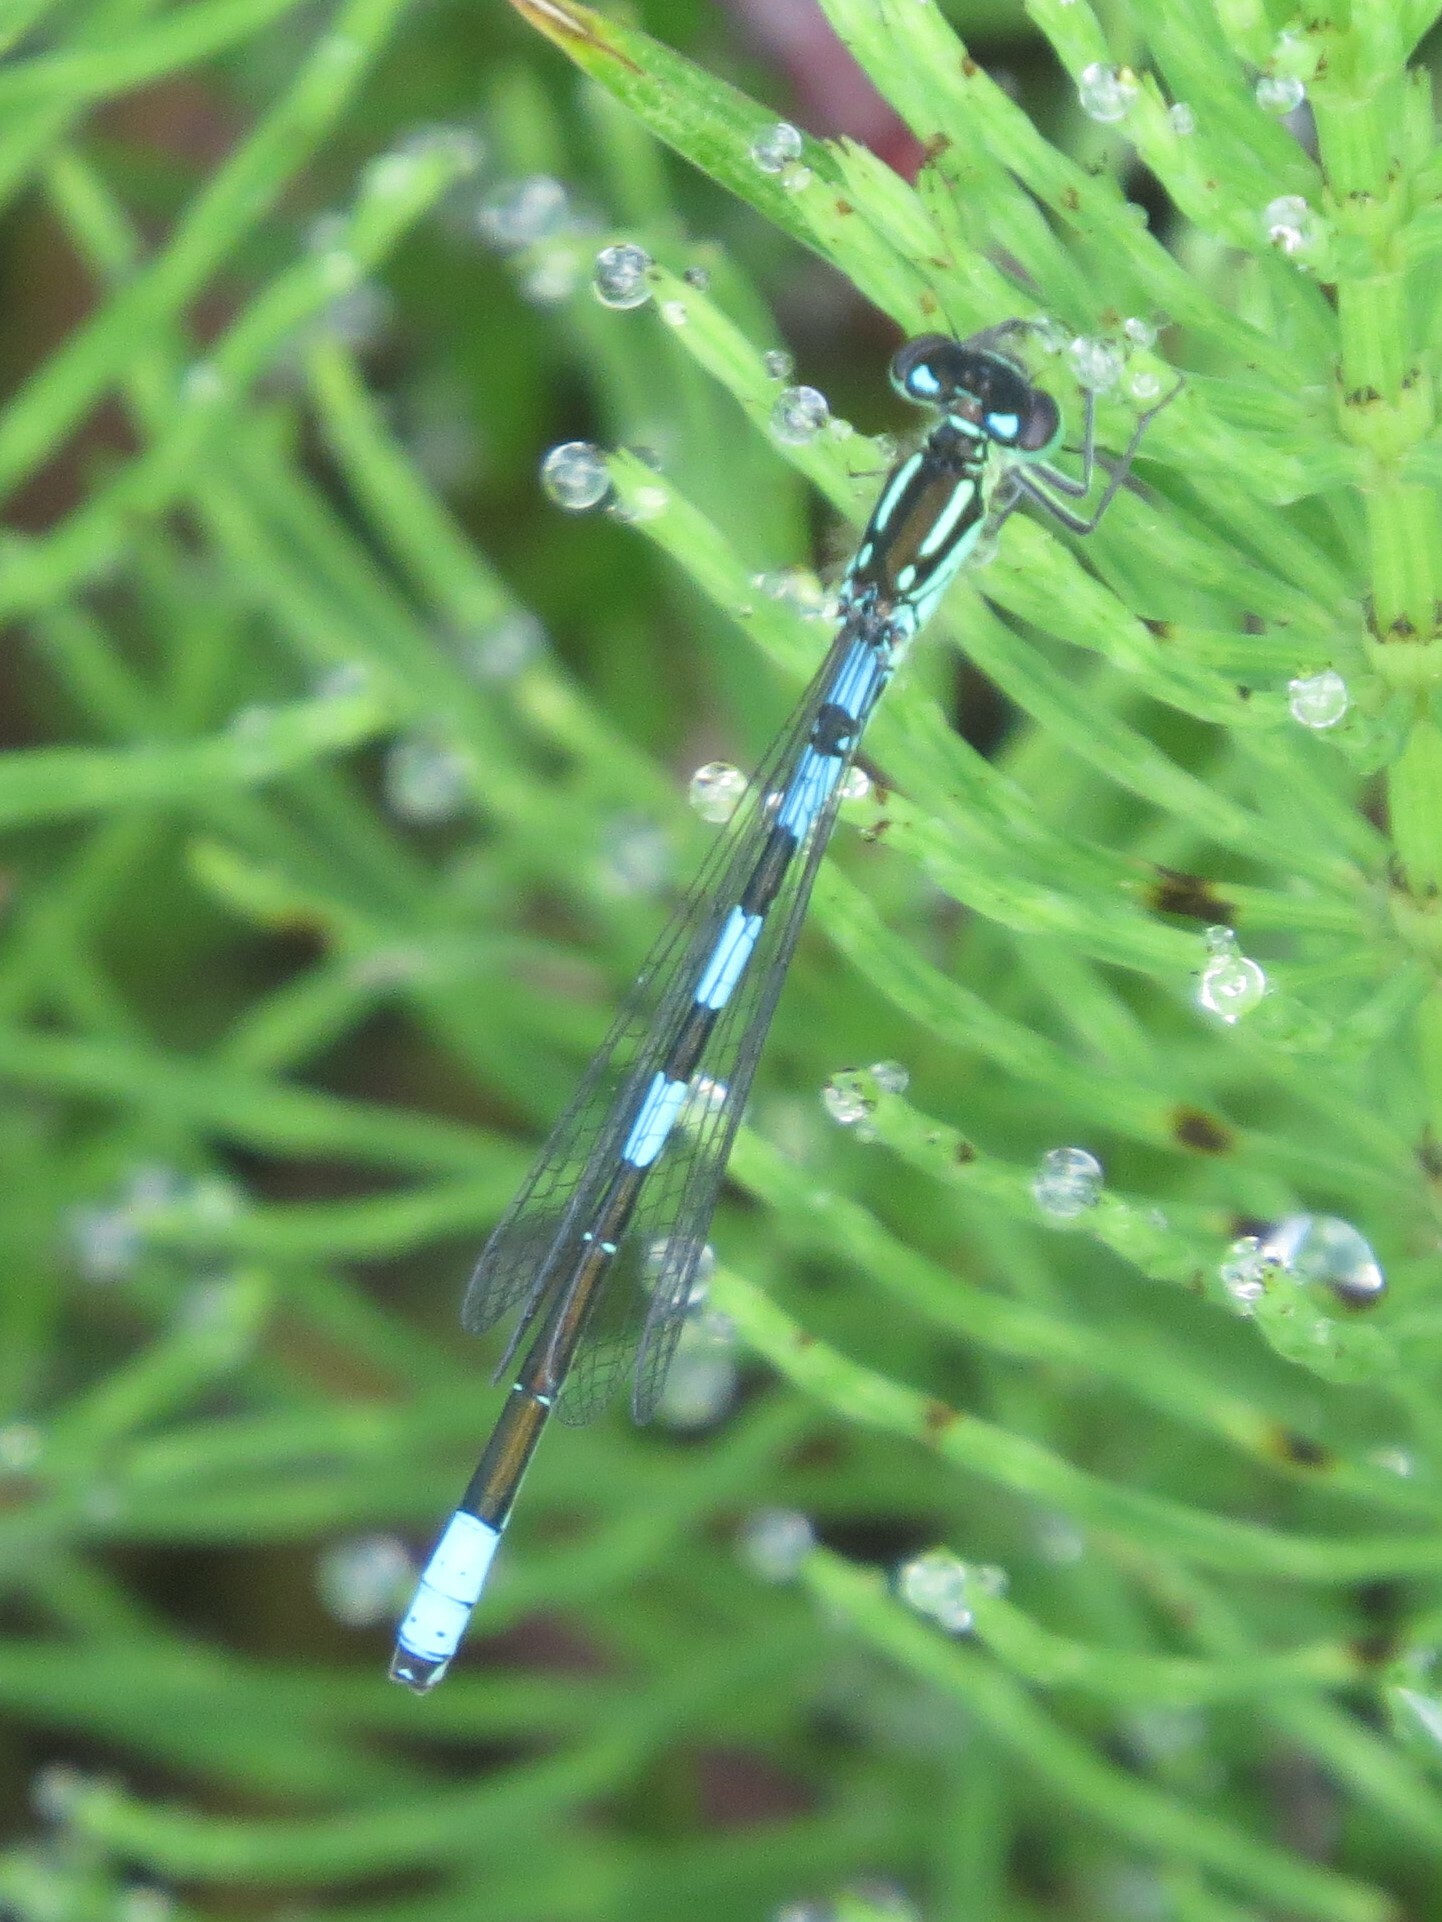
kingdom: Animalia
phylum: Arthropoda
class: Insecta
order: Odonata
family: Coenagrionidae
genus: Coenagrion
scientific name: Coenagrion resolutum
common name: Taiga bluet
